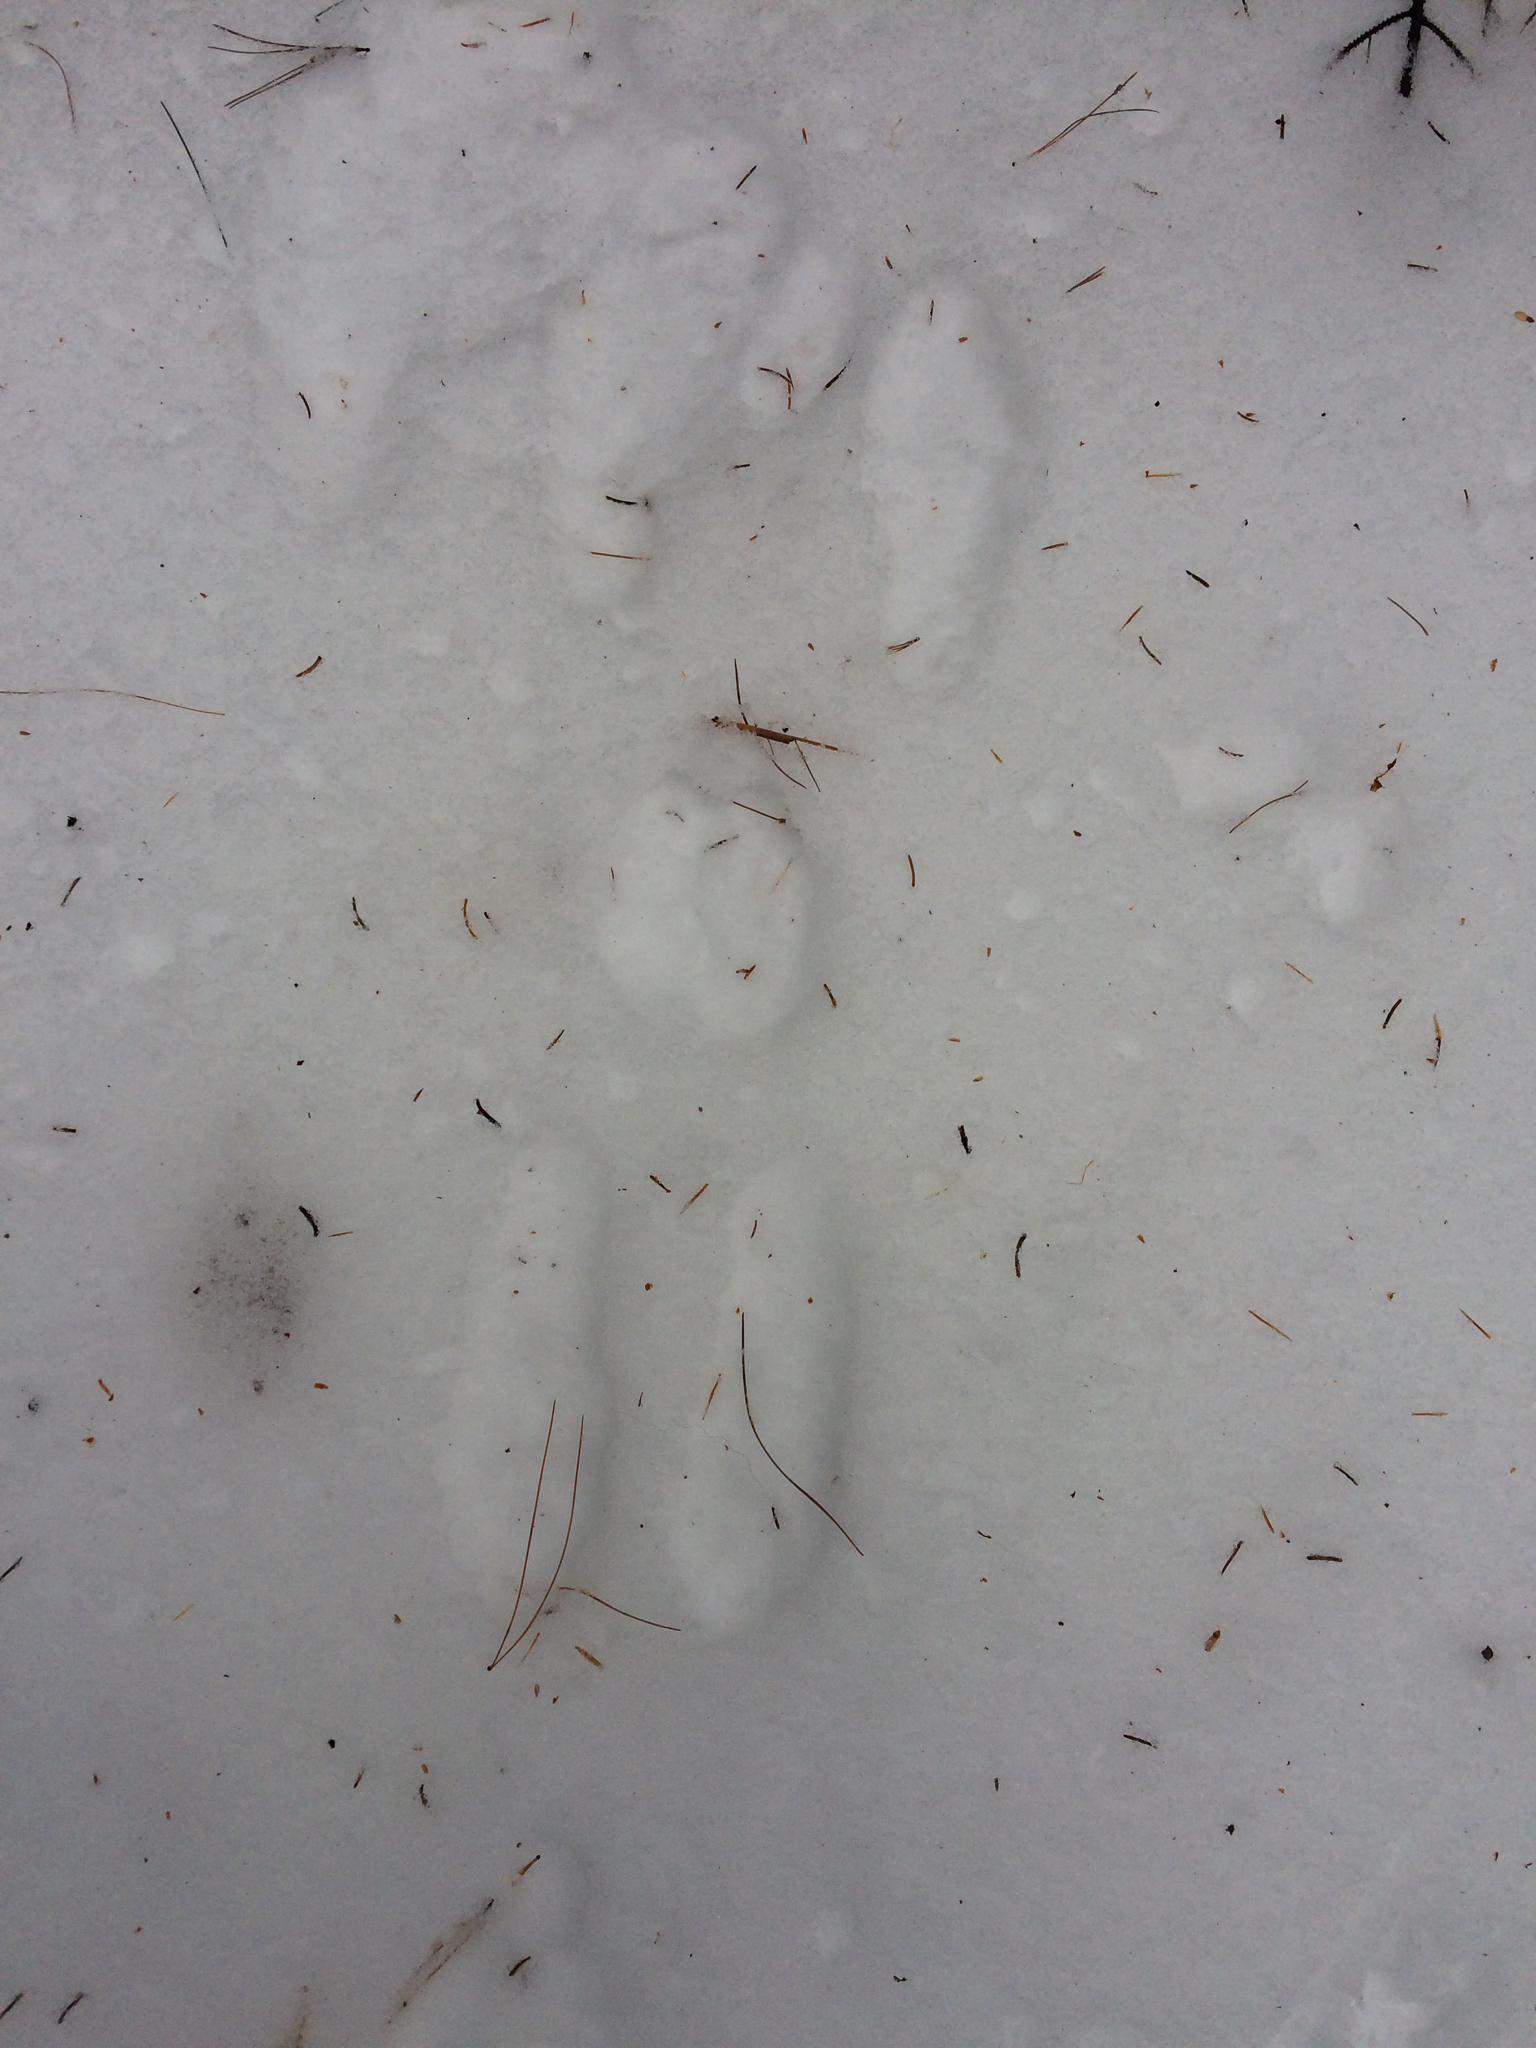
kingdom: Animalia
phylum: Chordata
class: Mammalia
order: Lagomorpha
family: Leporidae
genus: Lepus
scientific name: Lepus americanus
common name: Snowshoe hare
